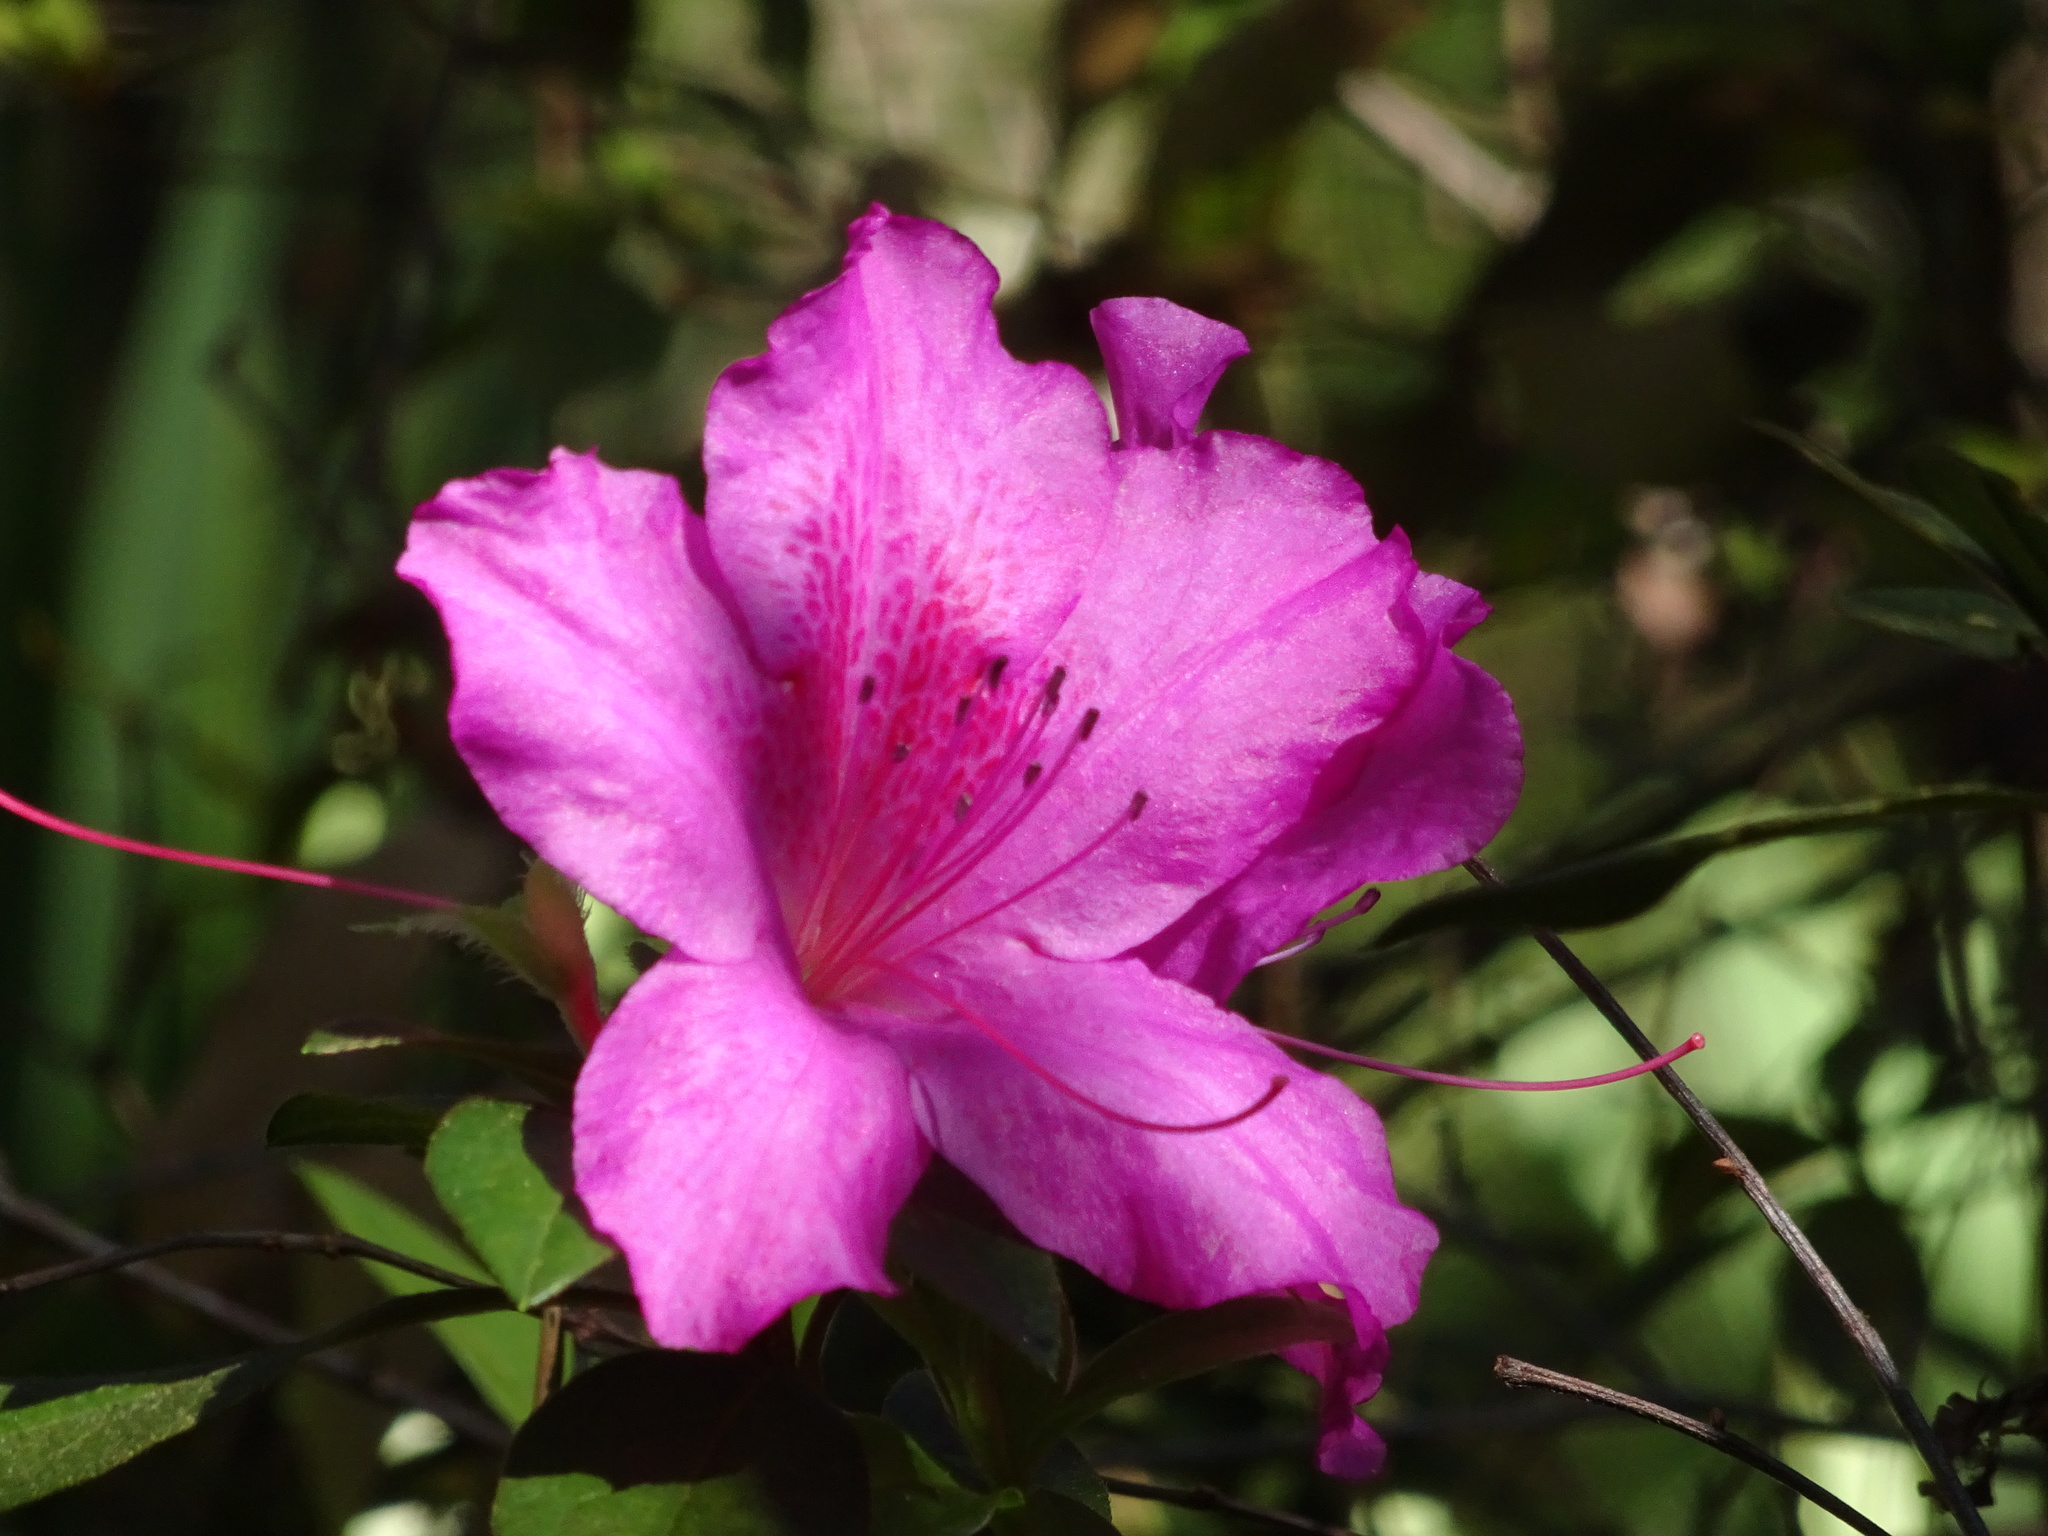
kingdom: Plantae
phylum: Tracheophyta
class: Magnoliopsida
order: Ericales
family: Ericaceae
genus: Rhododendron
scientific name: Rhododendron indicum
